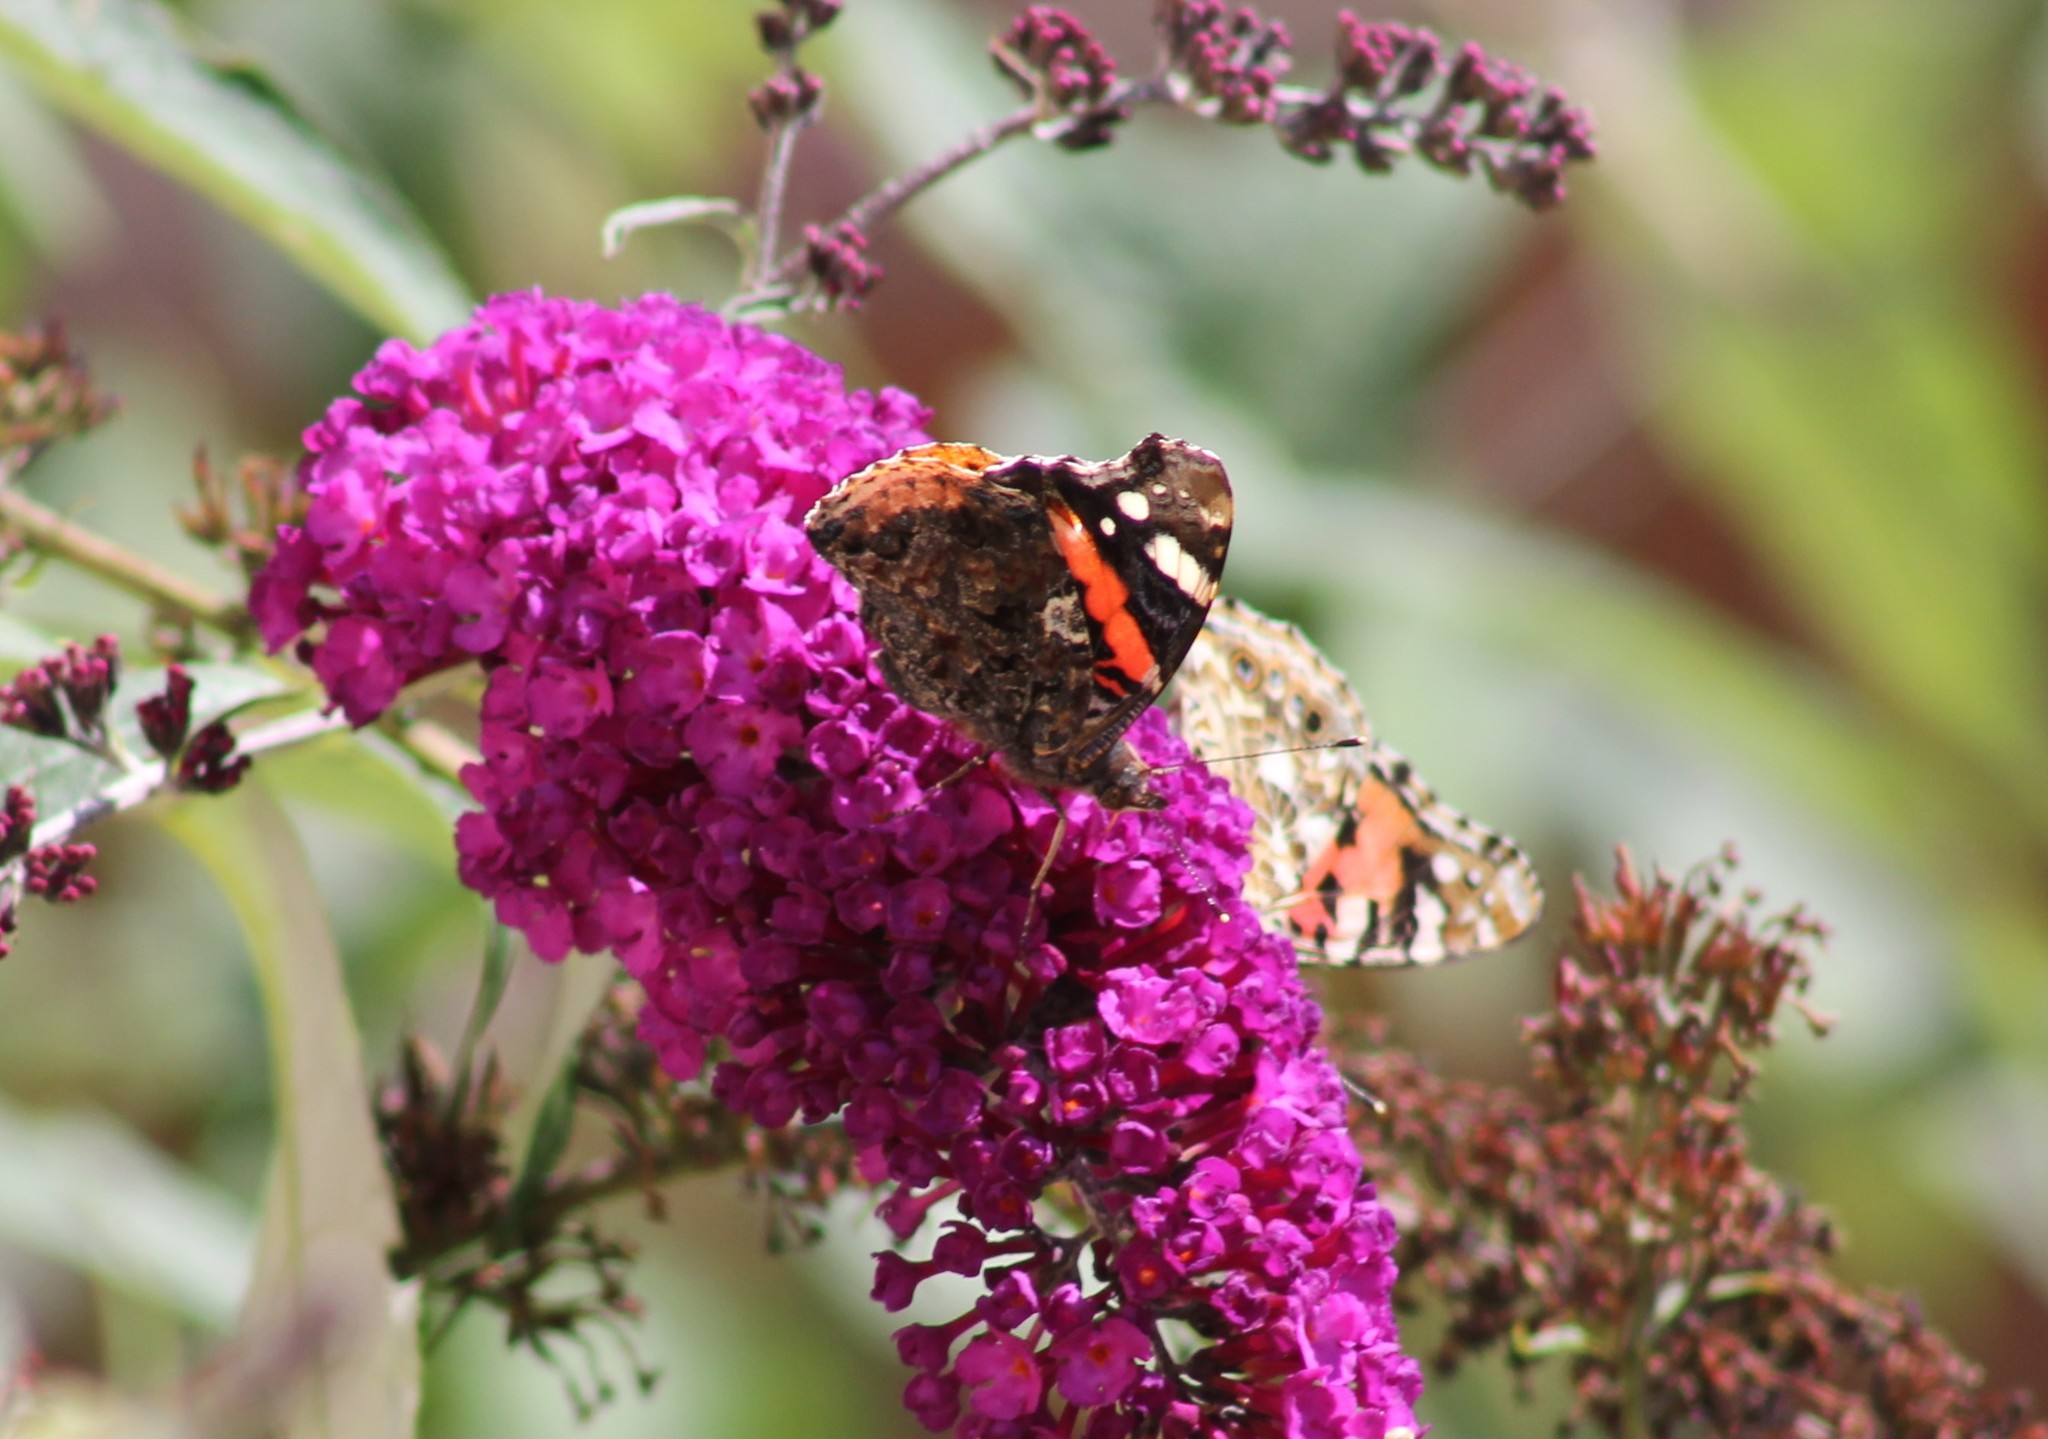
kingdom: Animalia
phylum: Arthropoda
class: Insecta
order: Lepidoptera
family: Nymphalidae
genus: Vanessa
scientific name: Vanessa atalanta
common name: Red admiral
